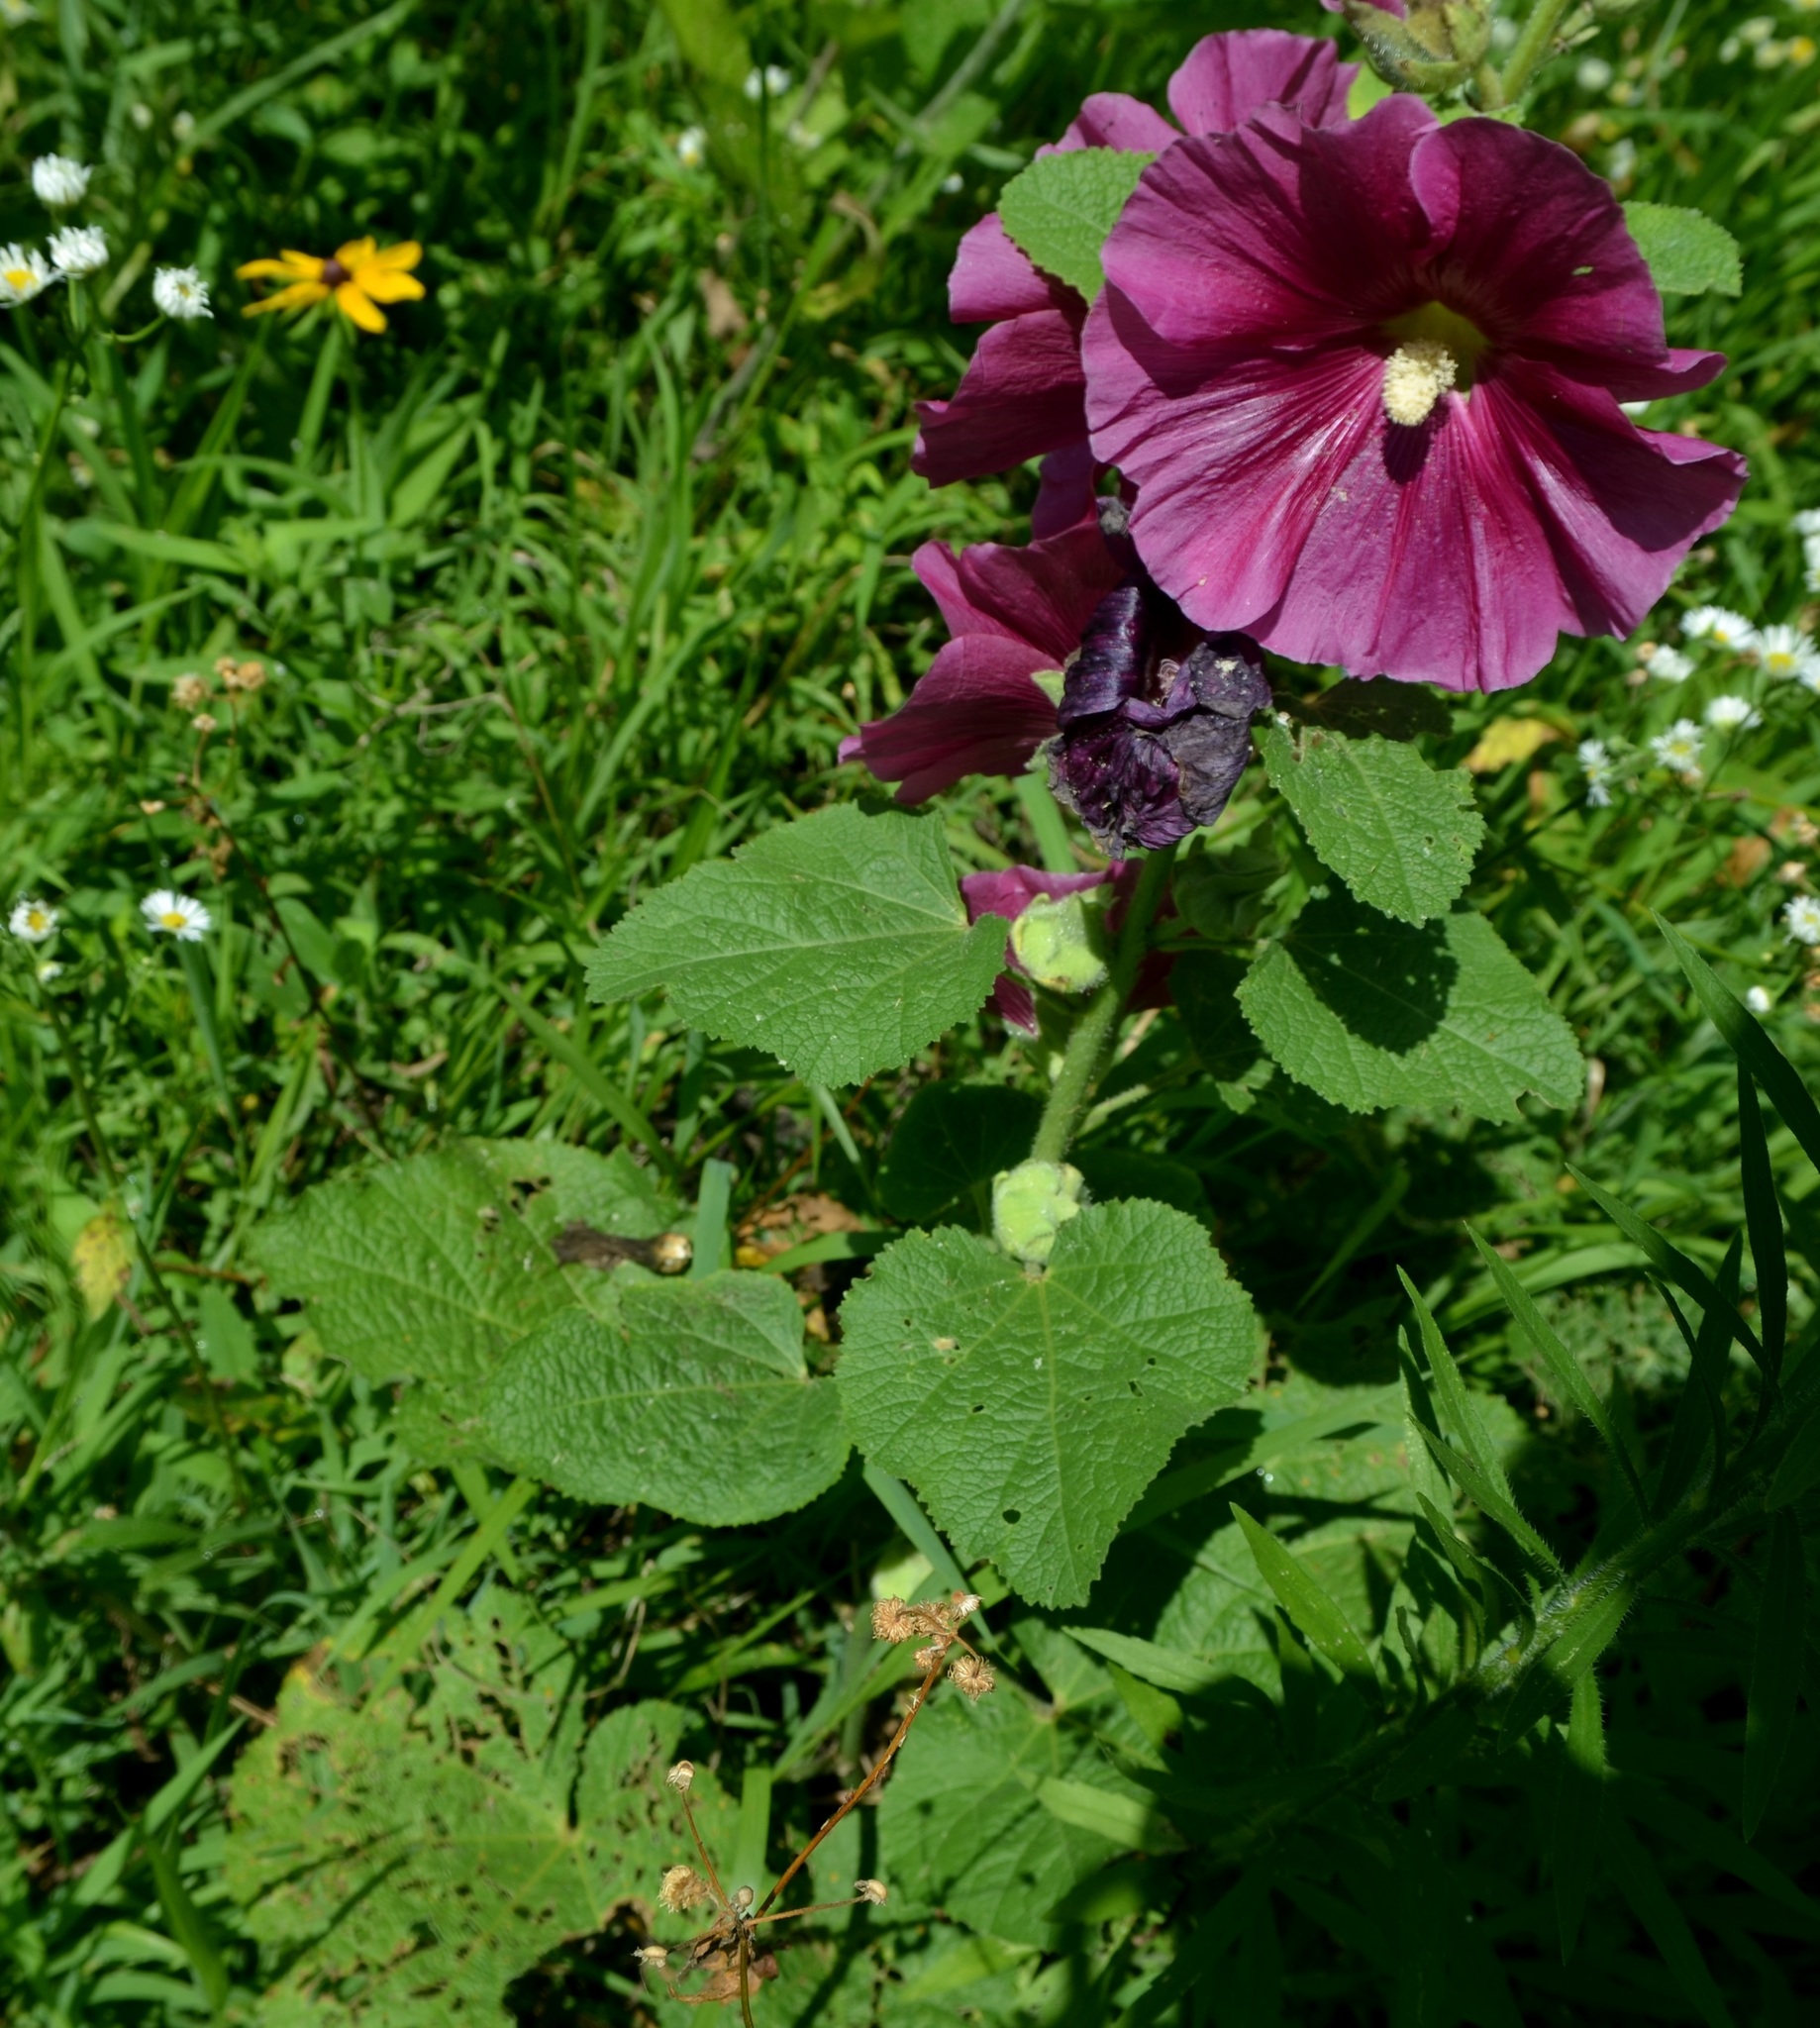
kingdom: Plantae
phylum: Tracheophyta
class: Magnoliopsida
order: Malvales
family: Malvaceae
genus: Alcea
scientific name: Alcea rosea
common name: Hollyhock
